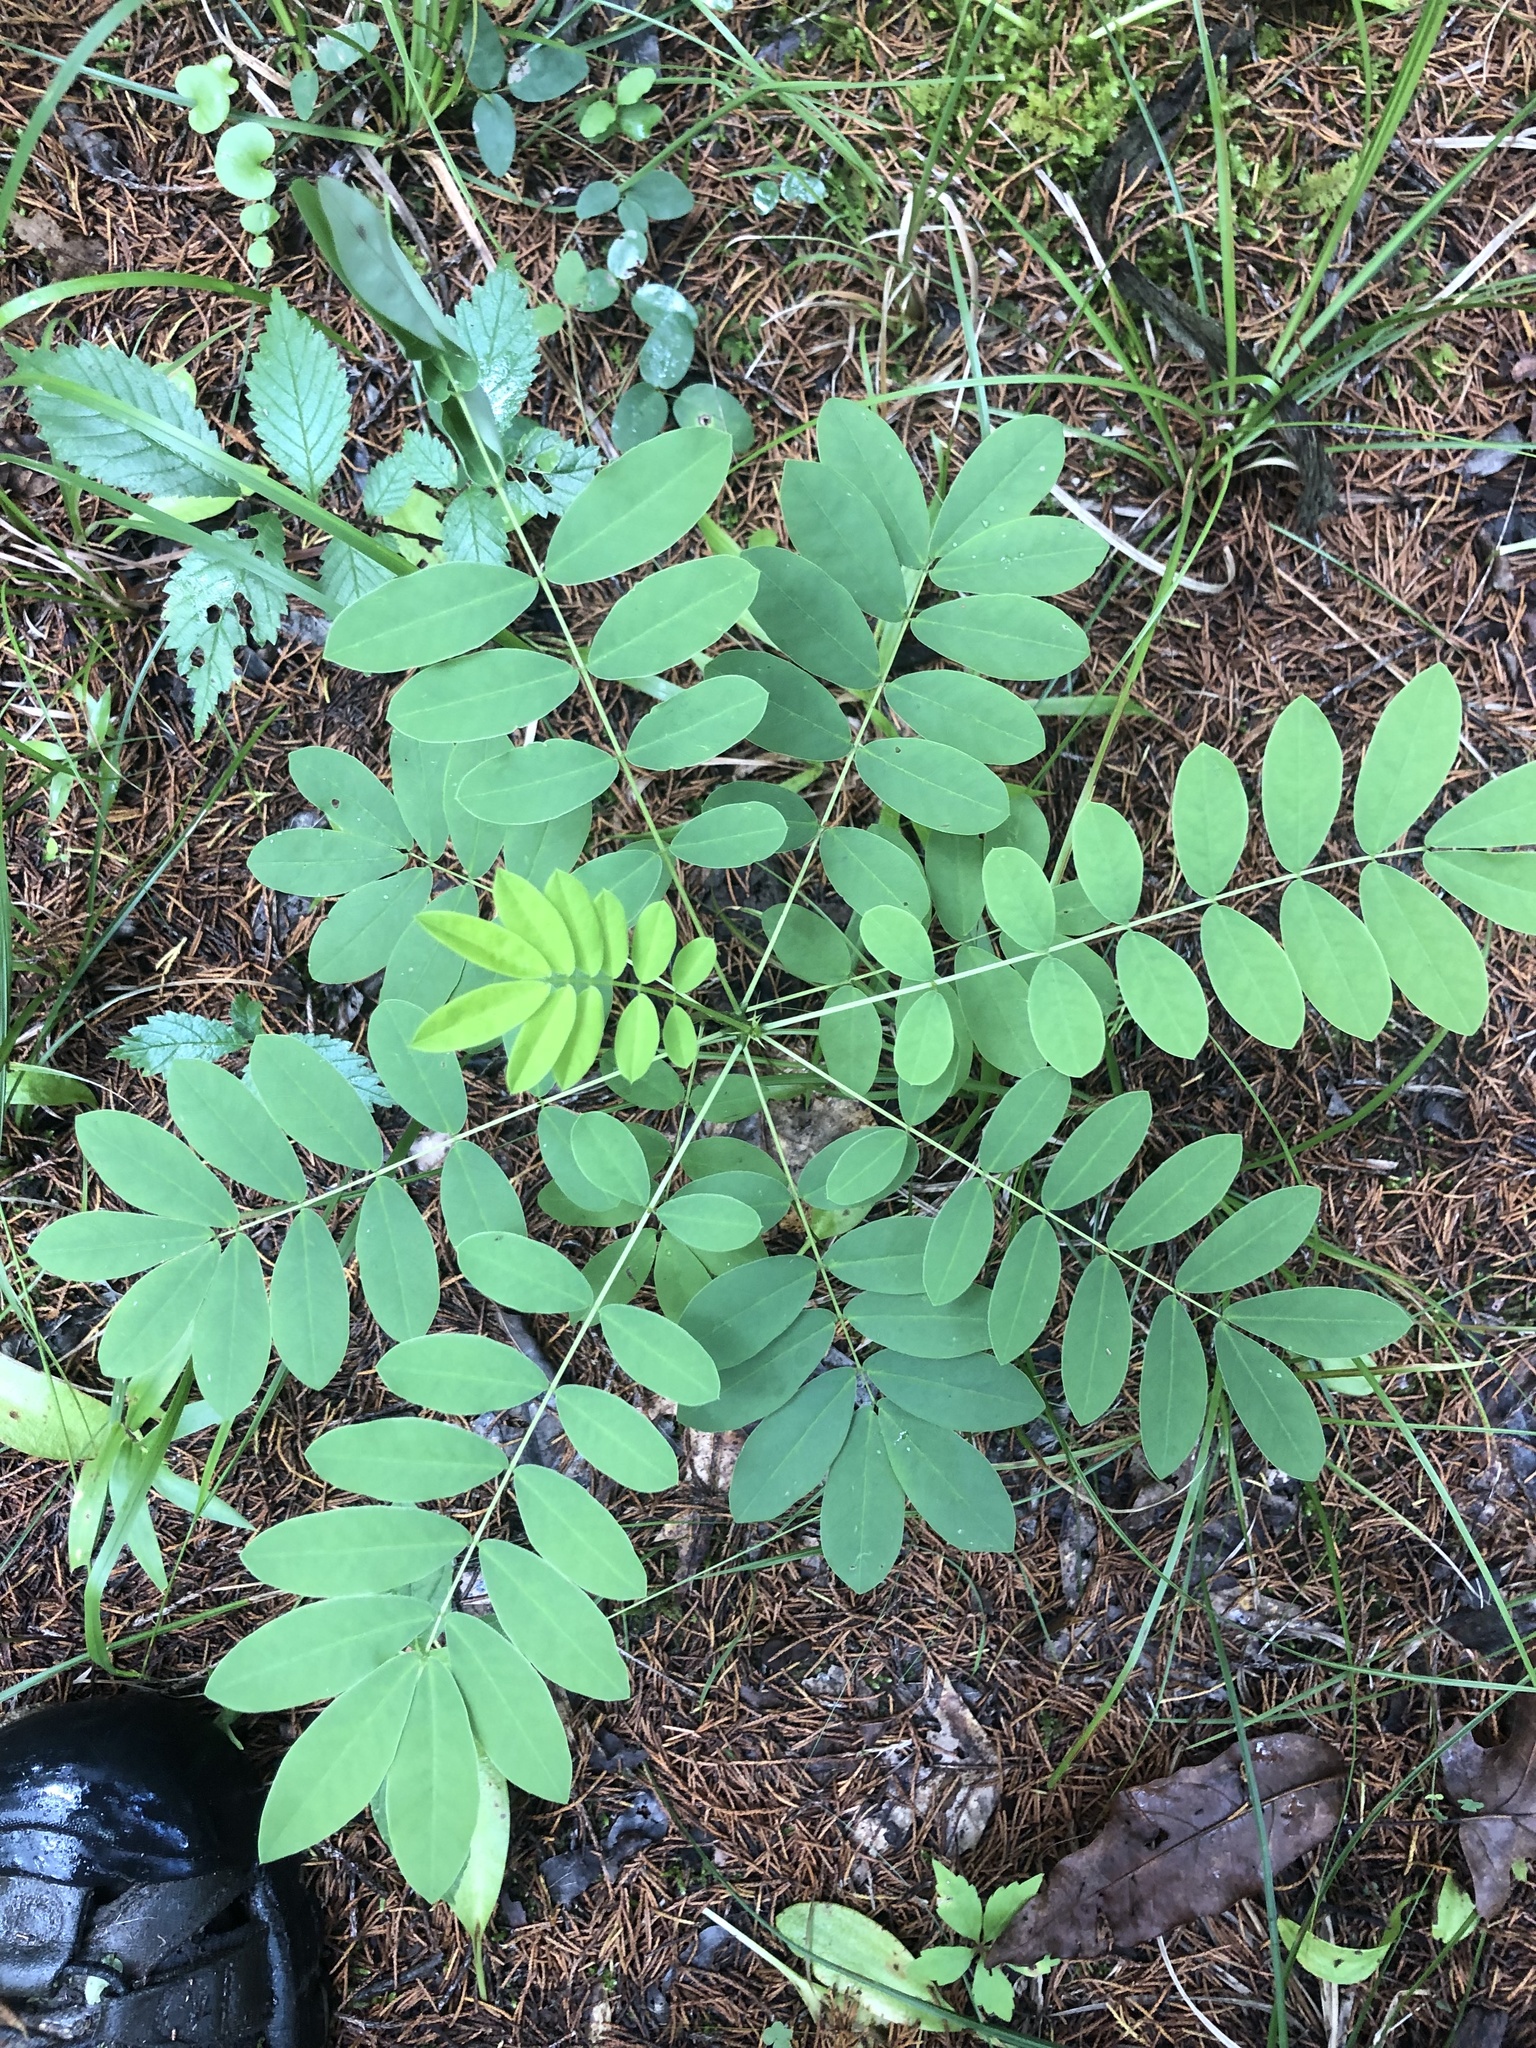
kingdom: Plantae
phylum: Tracheophyta
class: Magnoliopsida
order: Fabales
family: Fabaceae
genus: Senna
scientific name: Senna marilandica
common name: American senna
